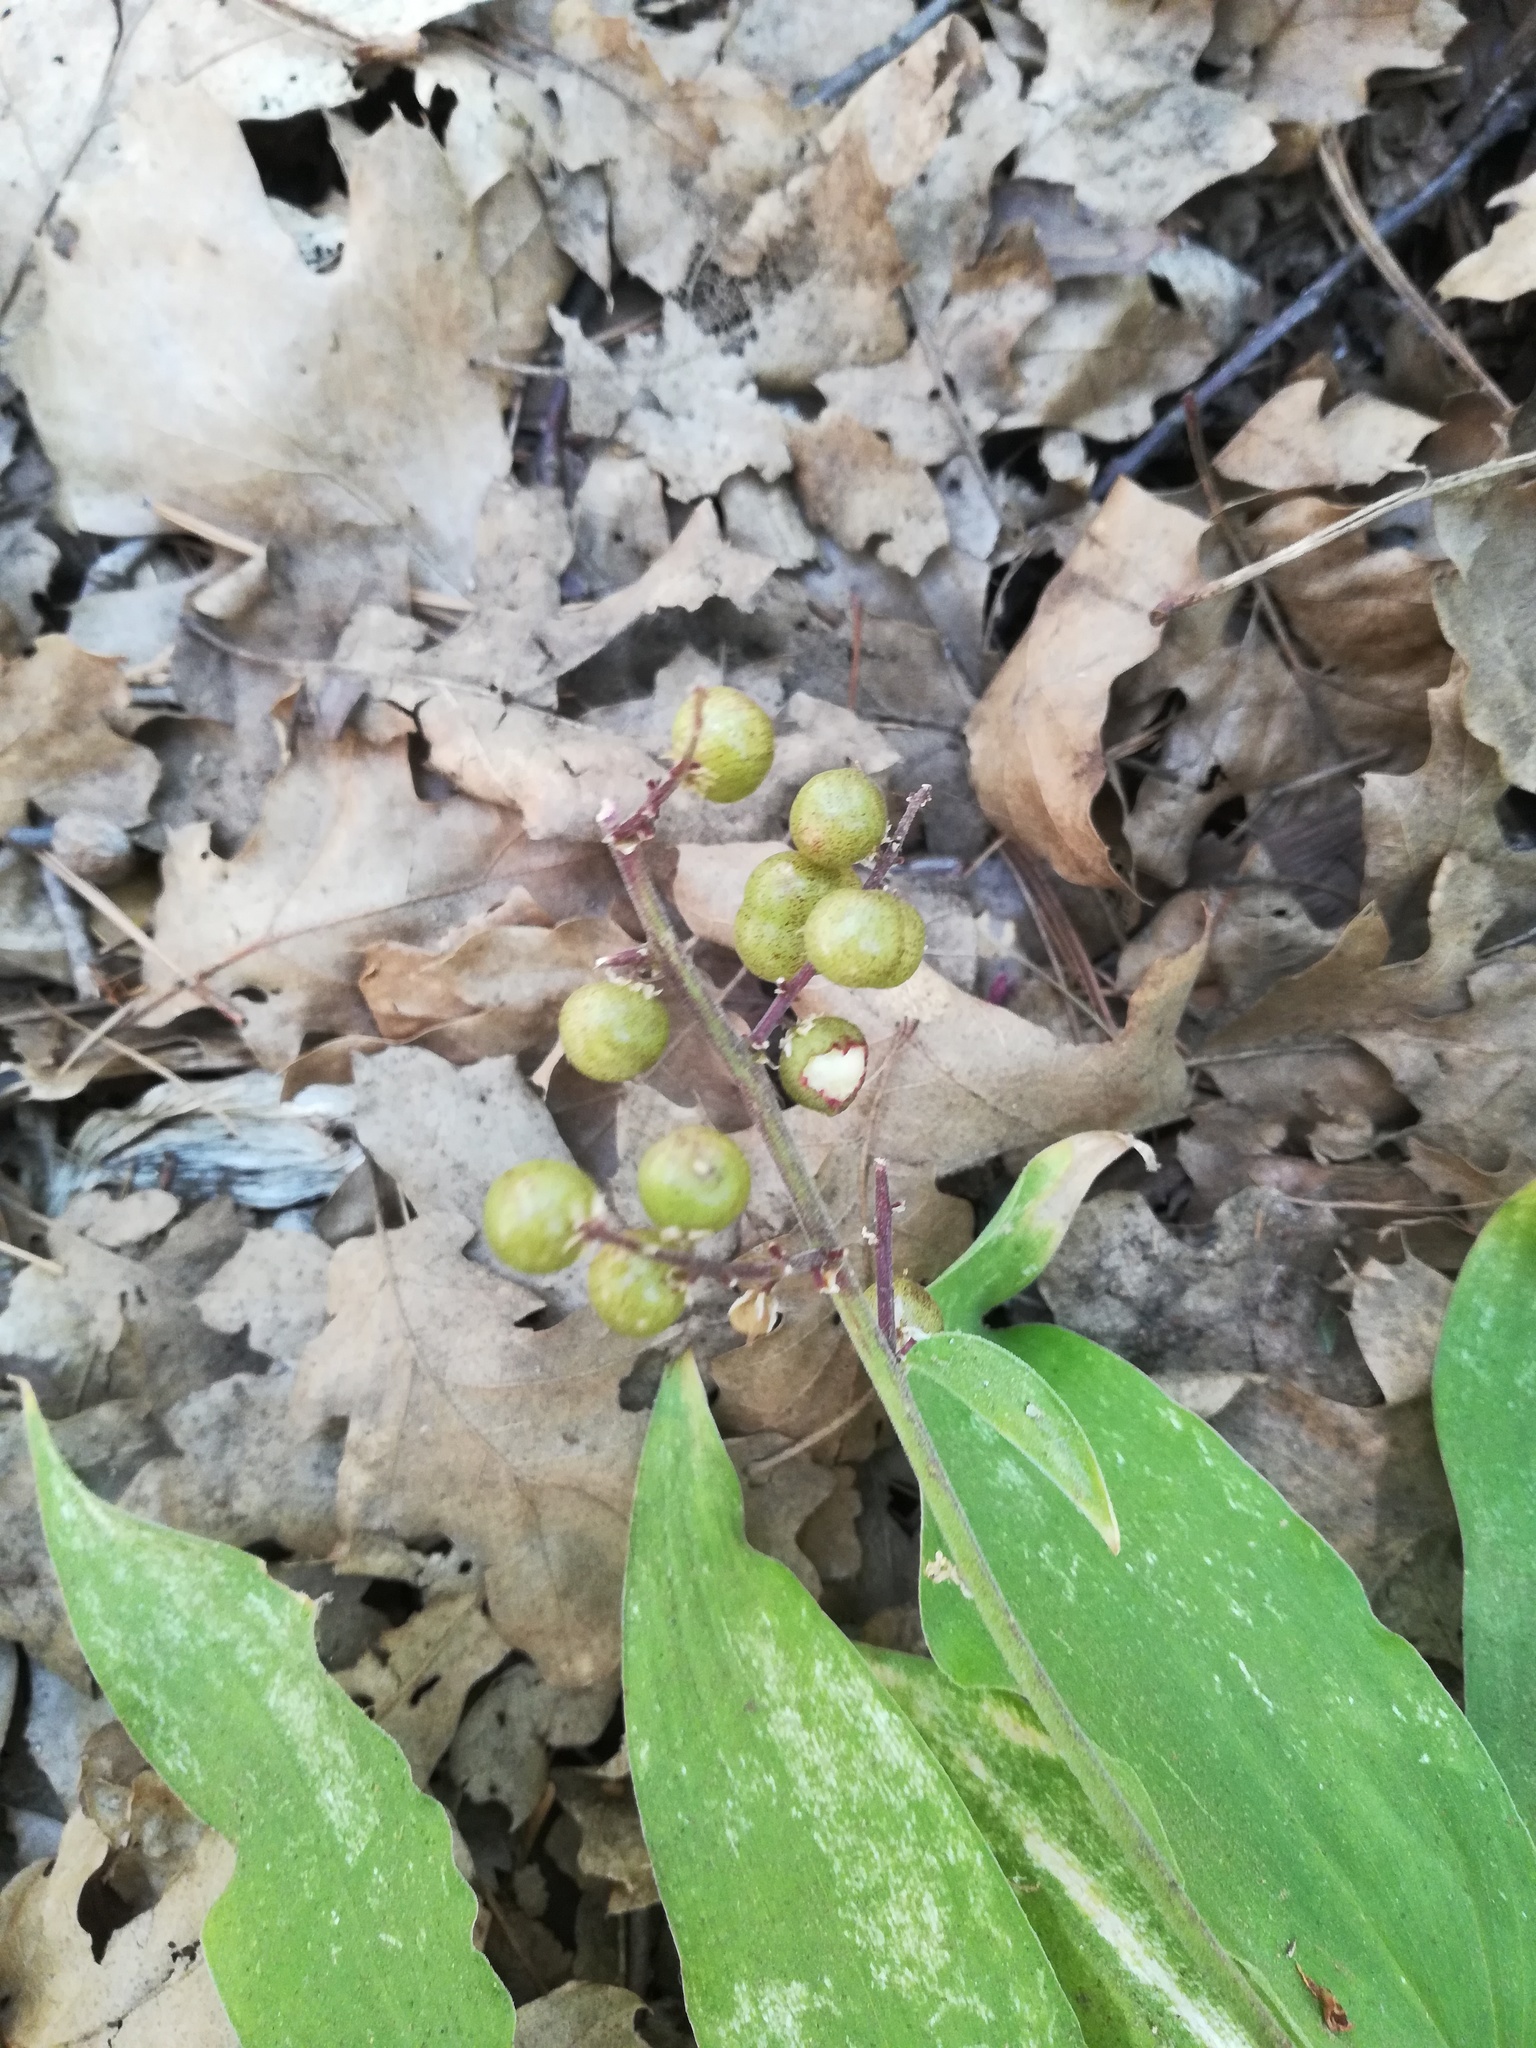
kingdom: Plantae
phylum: Tracheophyta
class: Liliopsida
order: Asparagales
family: Asparagaceae
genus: Maianthemum
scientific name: Maianthemum racemosum
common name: False spikenard
